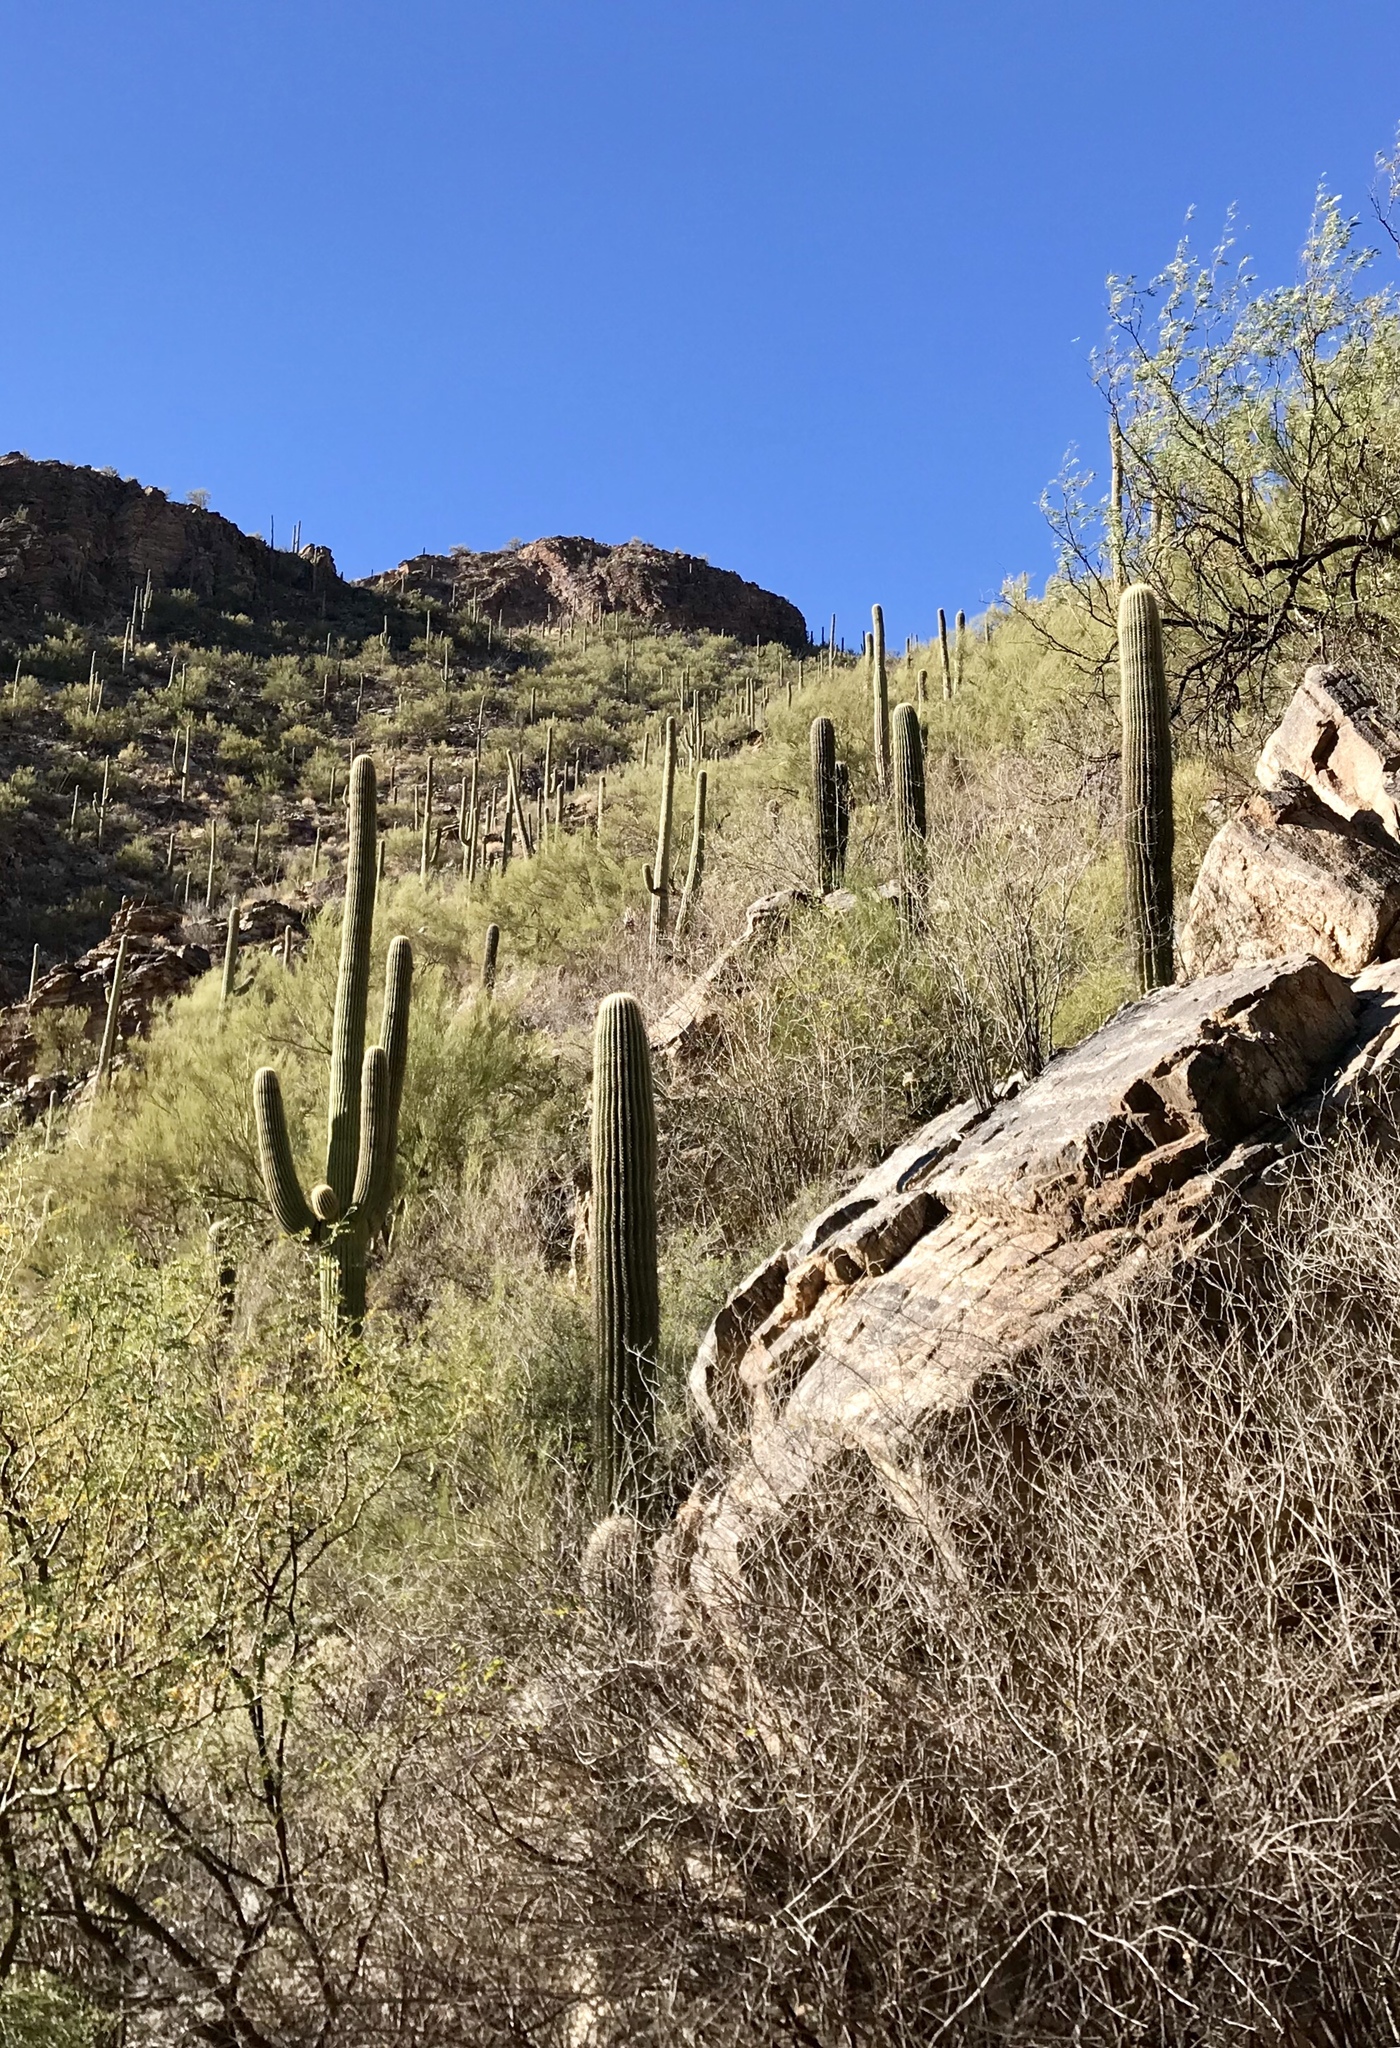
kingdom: Plantae
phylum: Tracheophyta
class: Magnoliopsida
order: Caryophyllales
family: Cactaceae
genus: Carnegiea
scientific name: Carnegiea gigantea
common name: Saguaro
